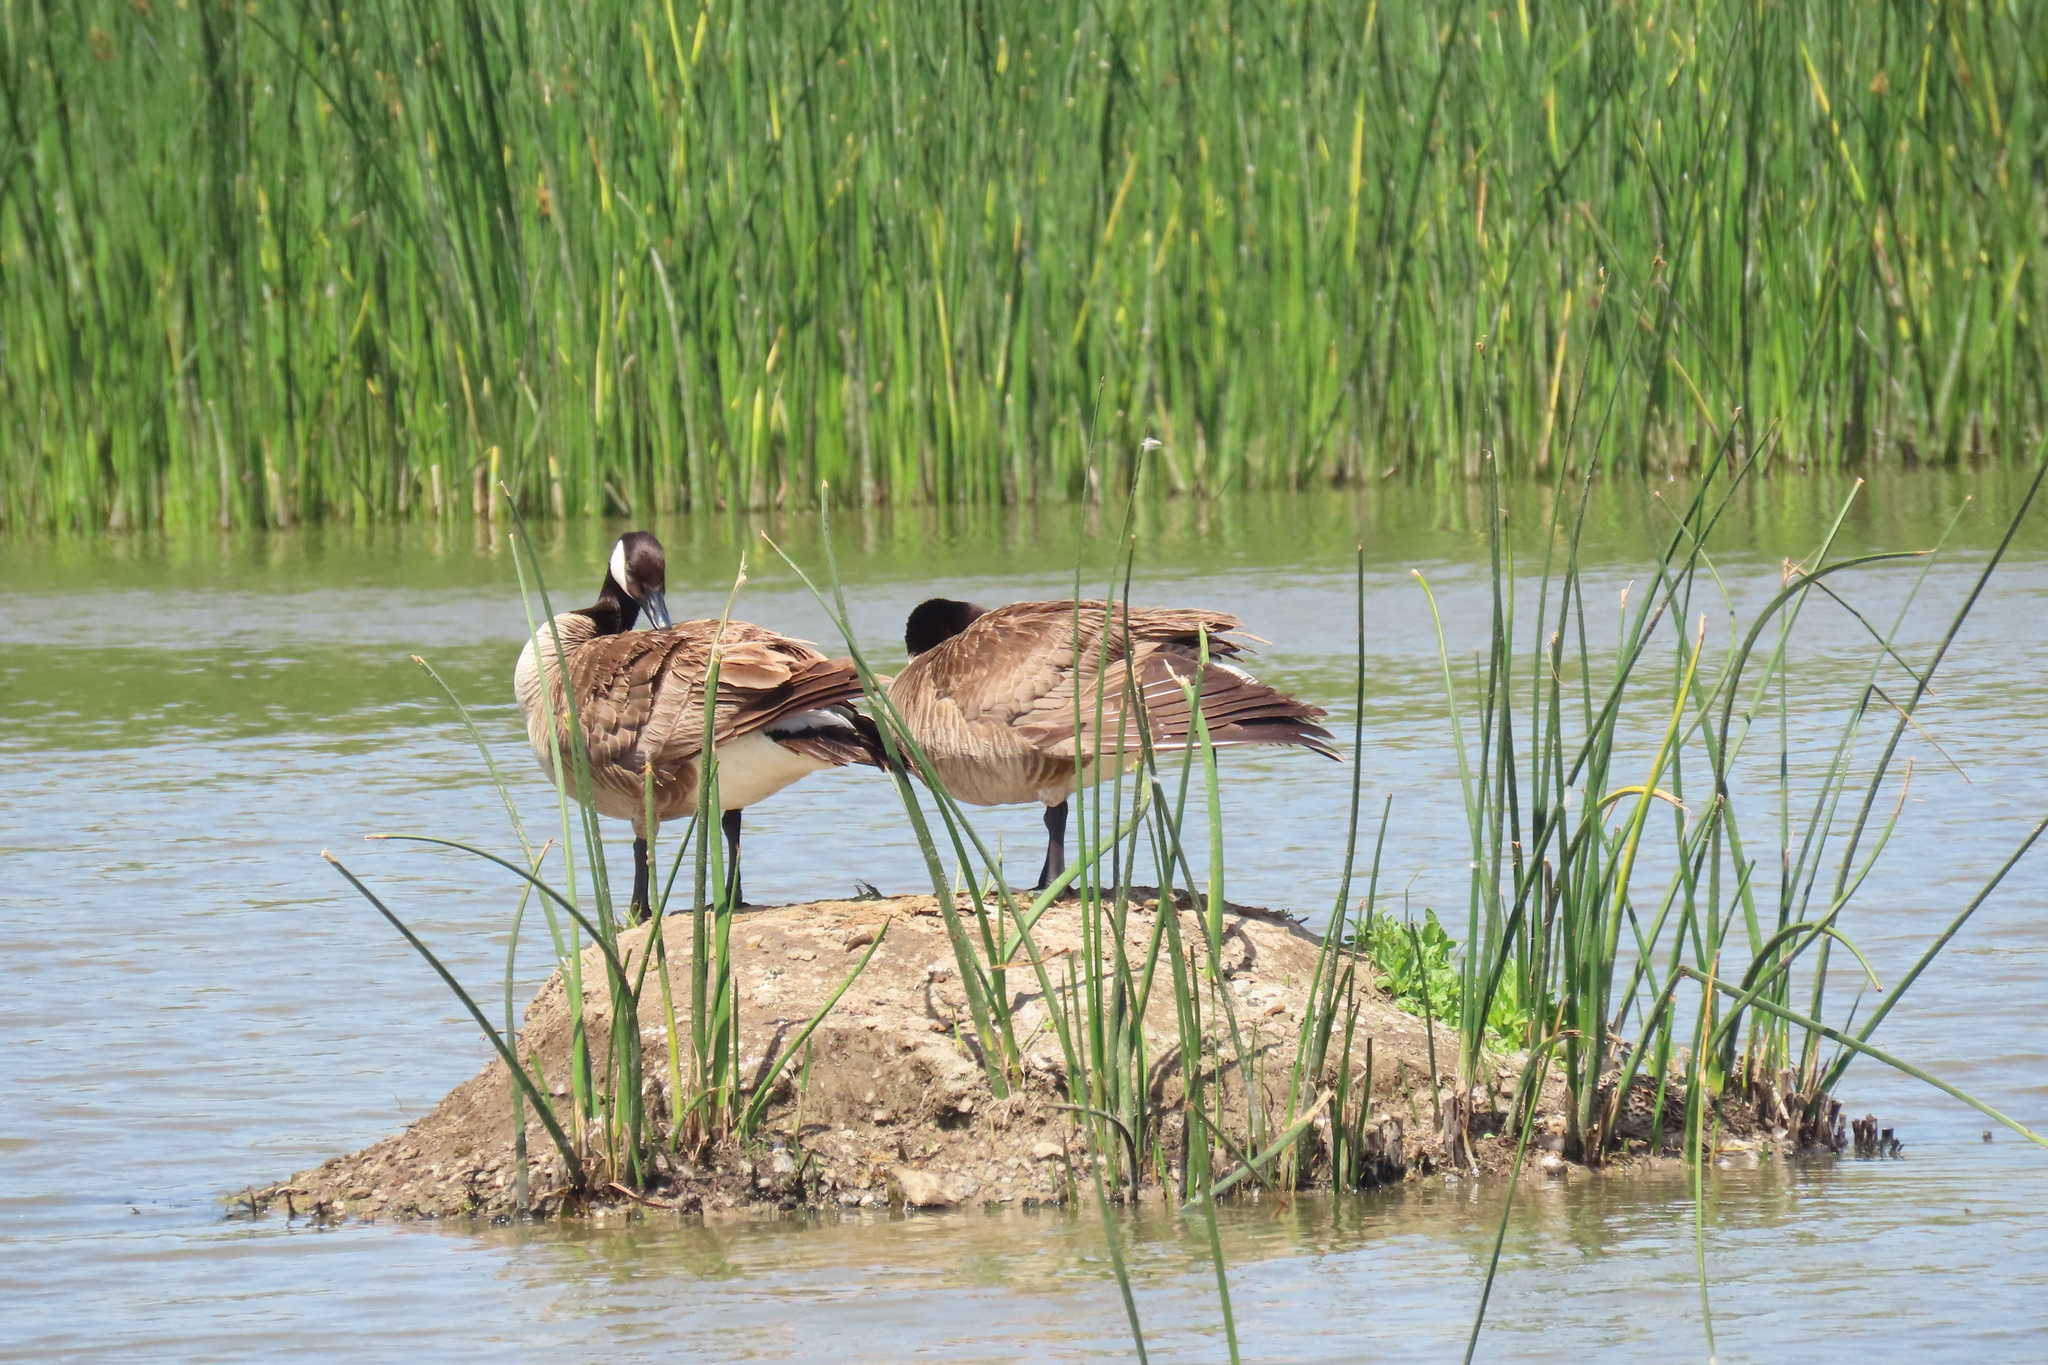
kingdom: Animalia
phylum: Chordata
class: Aves
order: Anseriformes
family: Anatidae
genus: Branta
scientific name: Branta canadensis
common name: Canada goose
